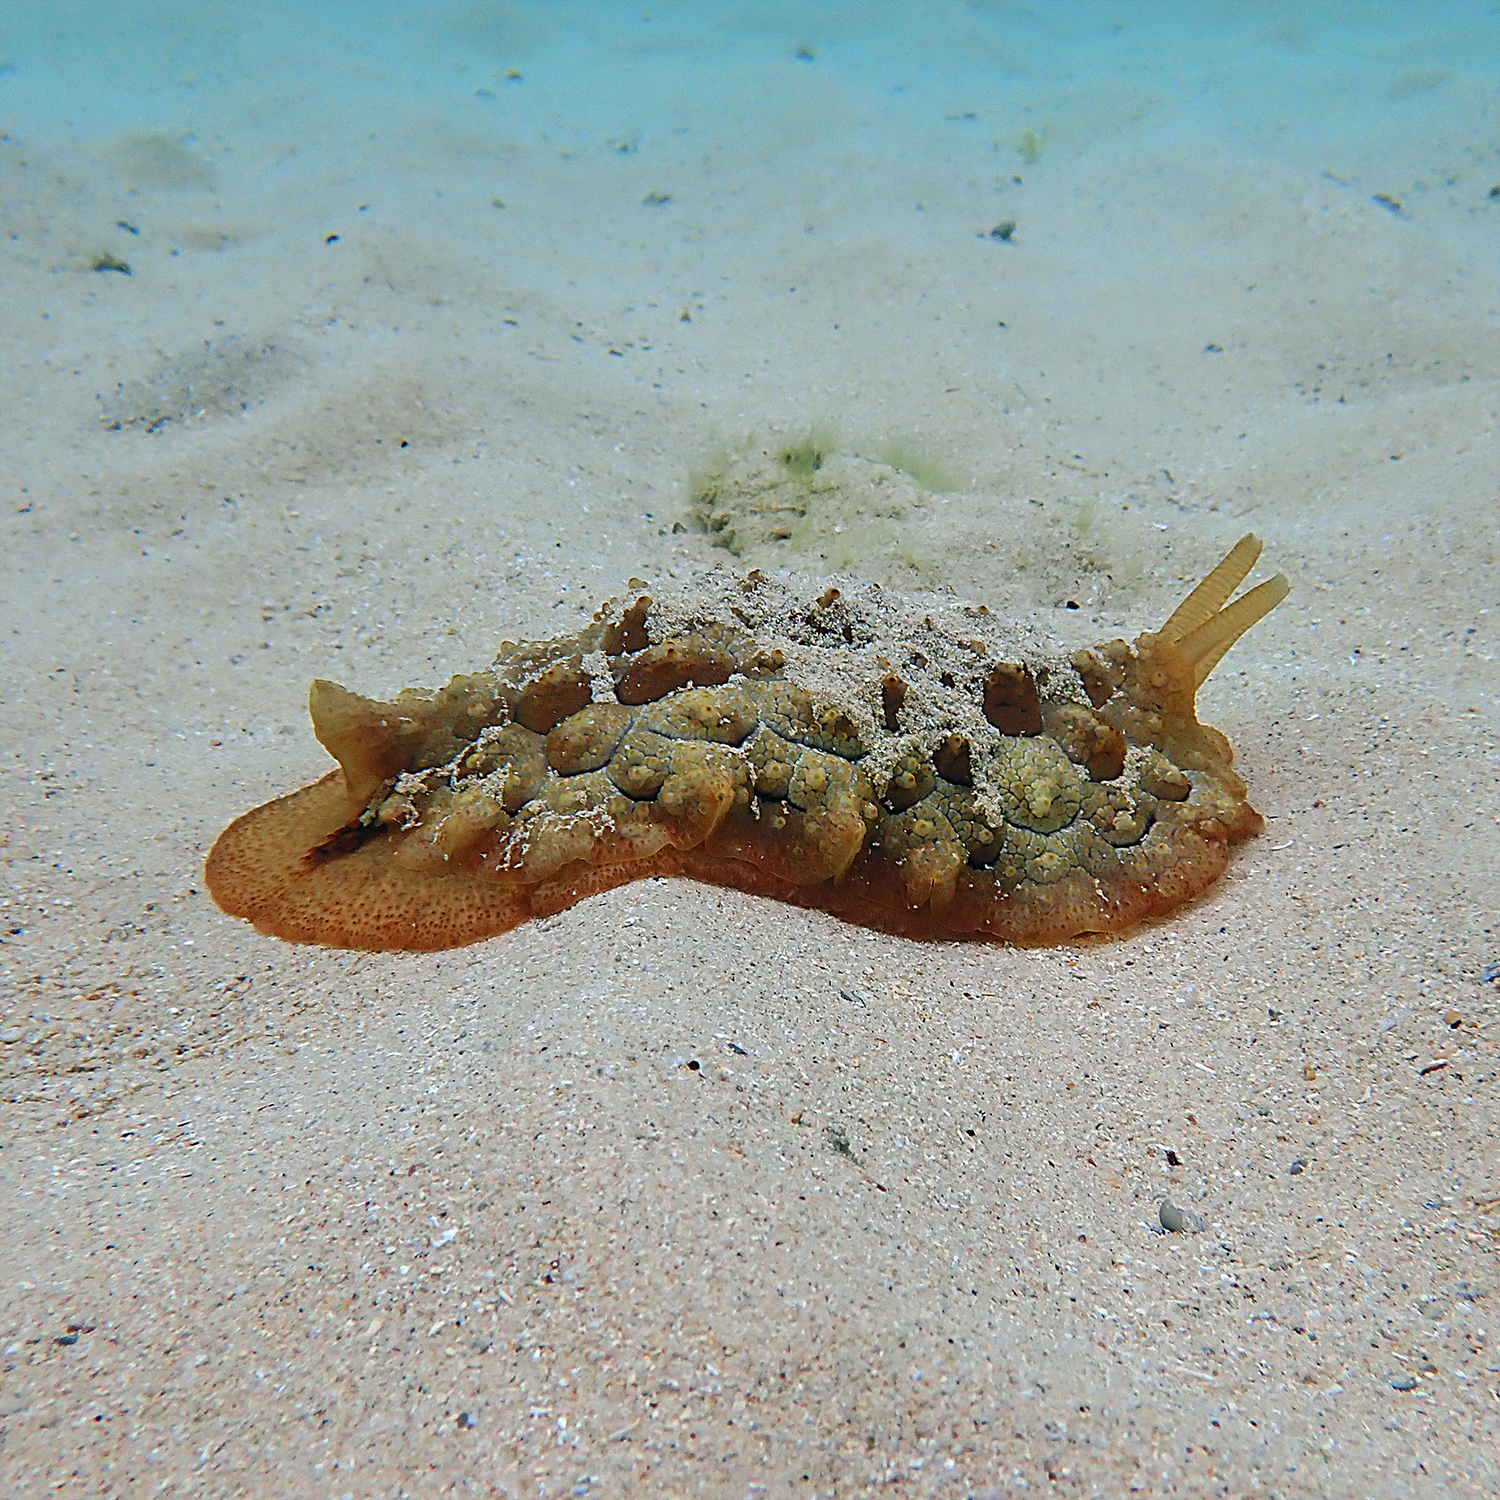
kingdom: Animalia
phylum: Mollusca
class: Gastropoda
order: Pleurobranchida
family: Pleurobranchidae
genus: Pleurobranchus
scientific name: Pleurobranchus forskalii
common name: Forskal's side-gilled sea slug
